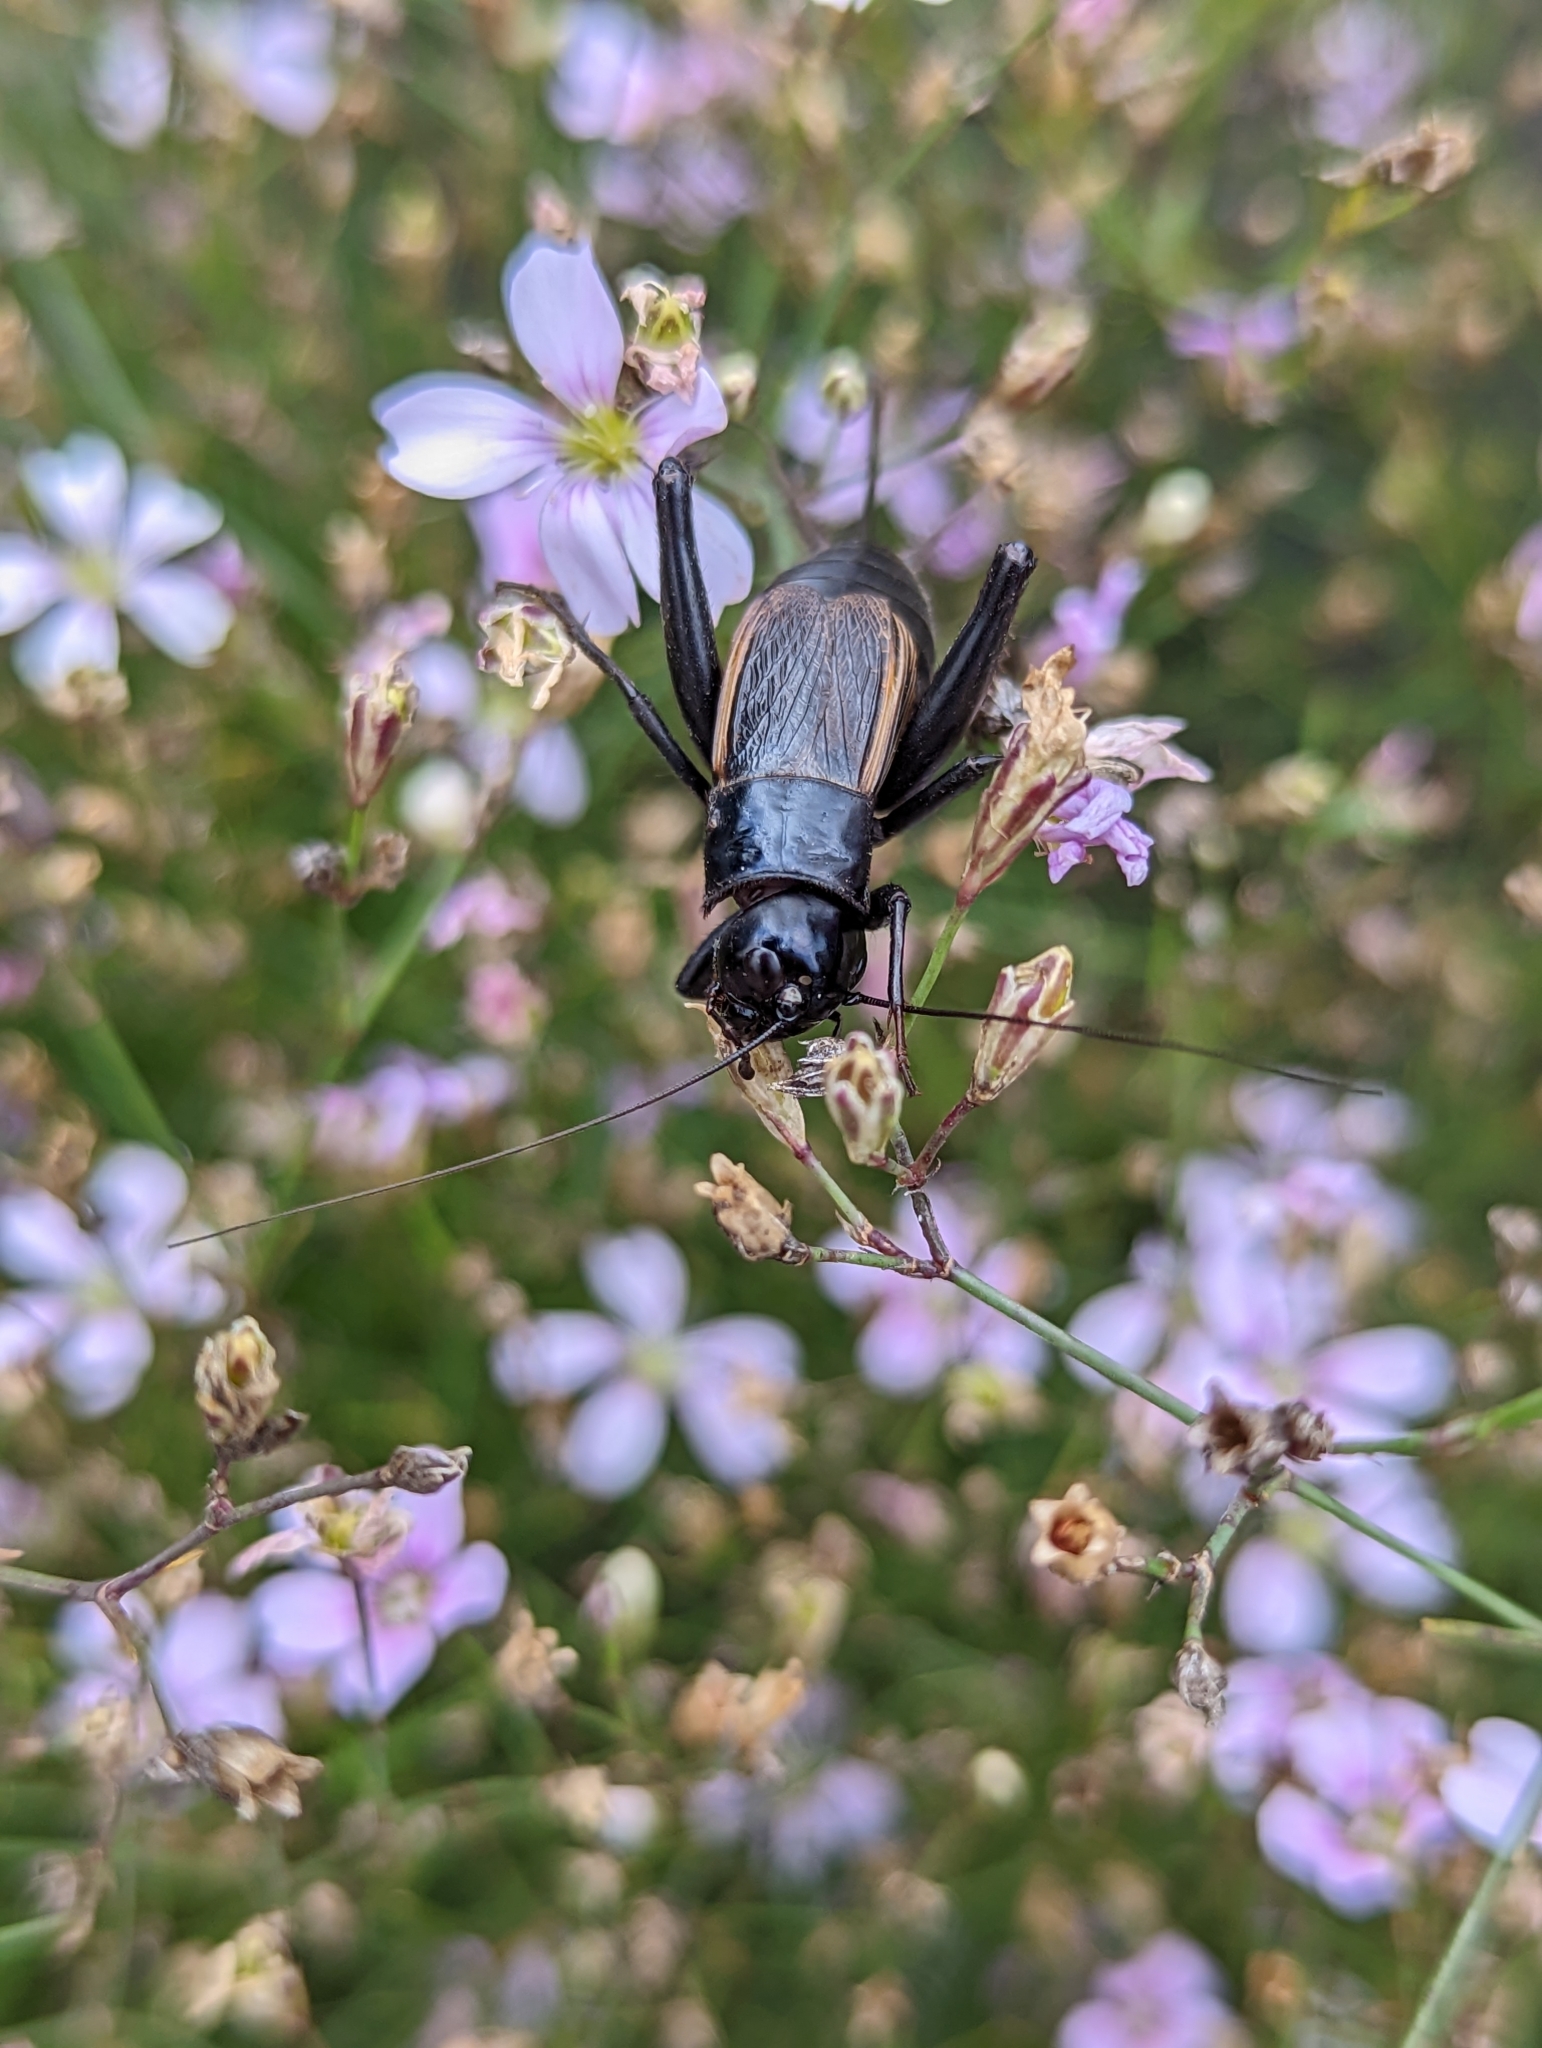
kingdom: Animalia
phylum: Arthropoda
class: Insecta
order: Orthoptera
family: Gryllidae
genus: Gryllus
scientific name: Gryllus pennsylvanicus
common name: Fall field cricket
